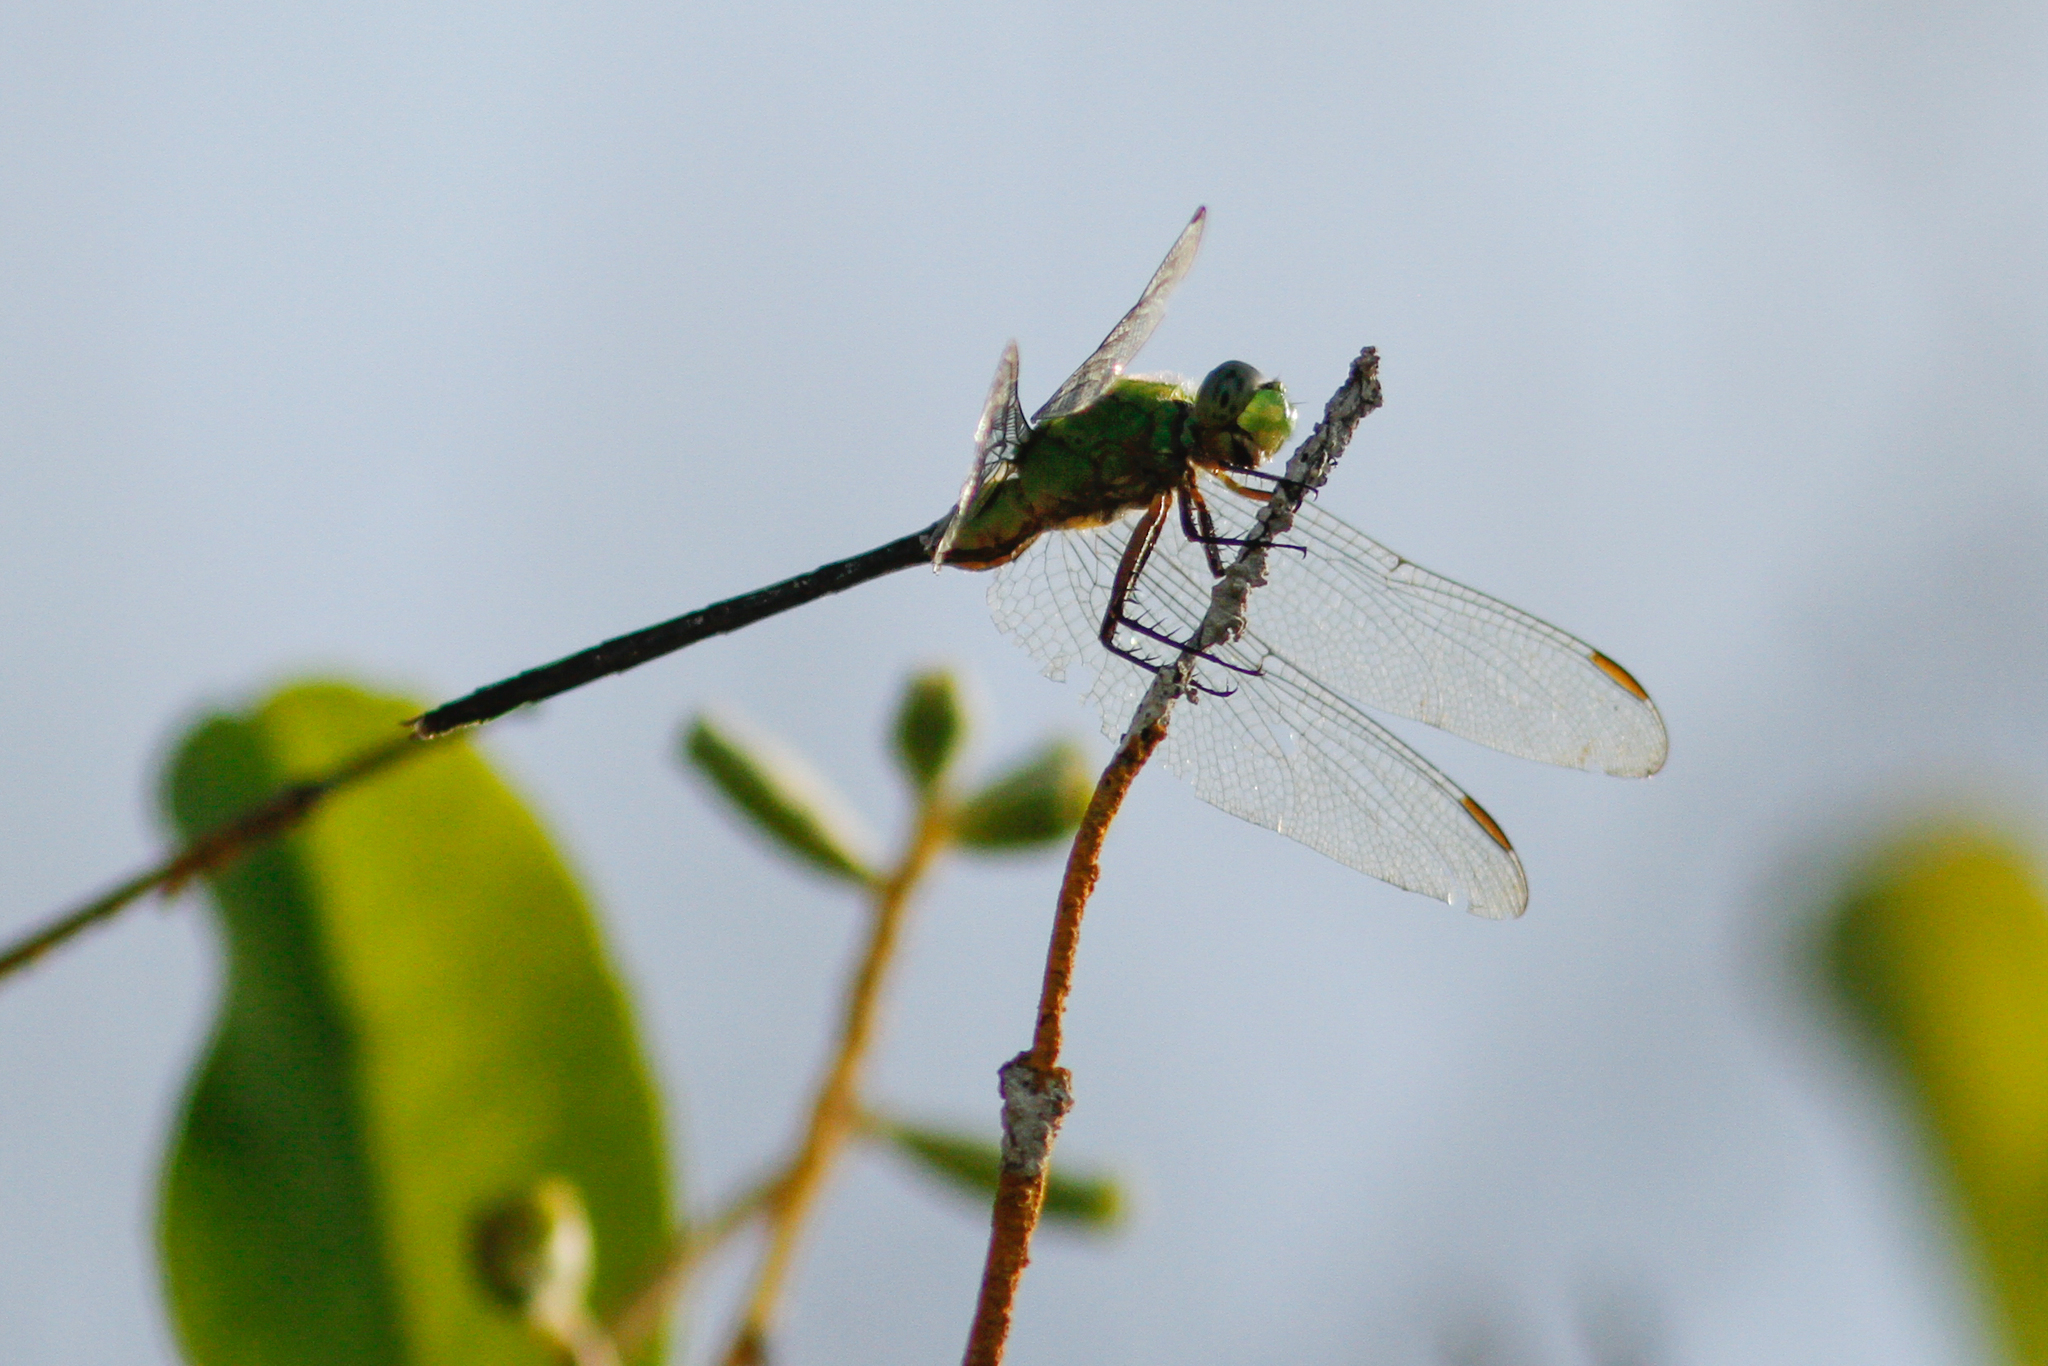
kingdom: Animalia
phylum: Arthropoda
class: Insecta
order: Odonata
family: Libellulidae
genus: Erythemis
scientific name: Erythemis vesiculosa
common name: Great pondhawk
